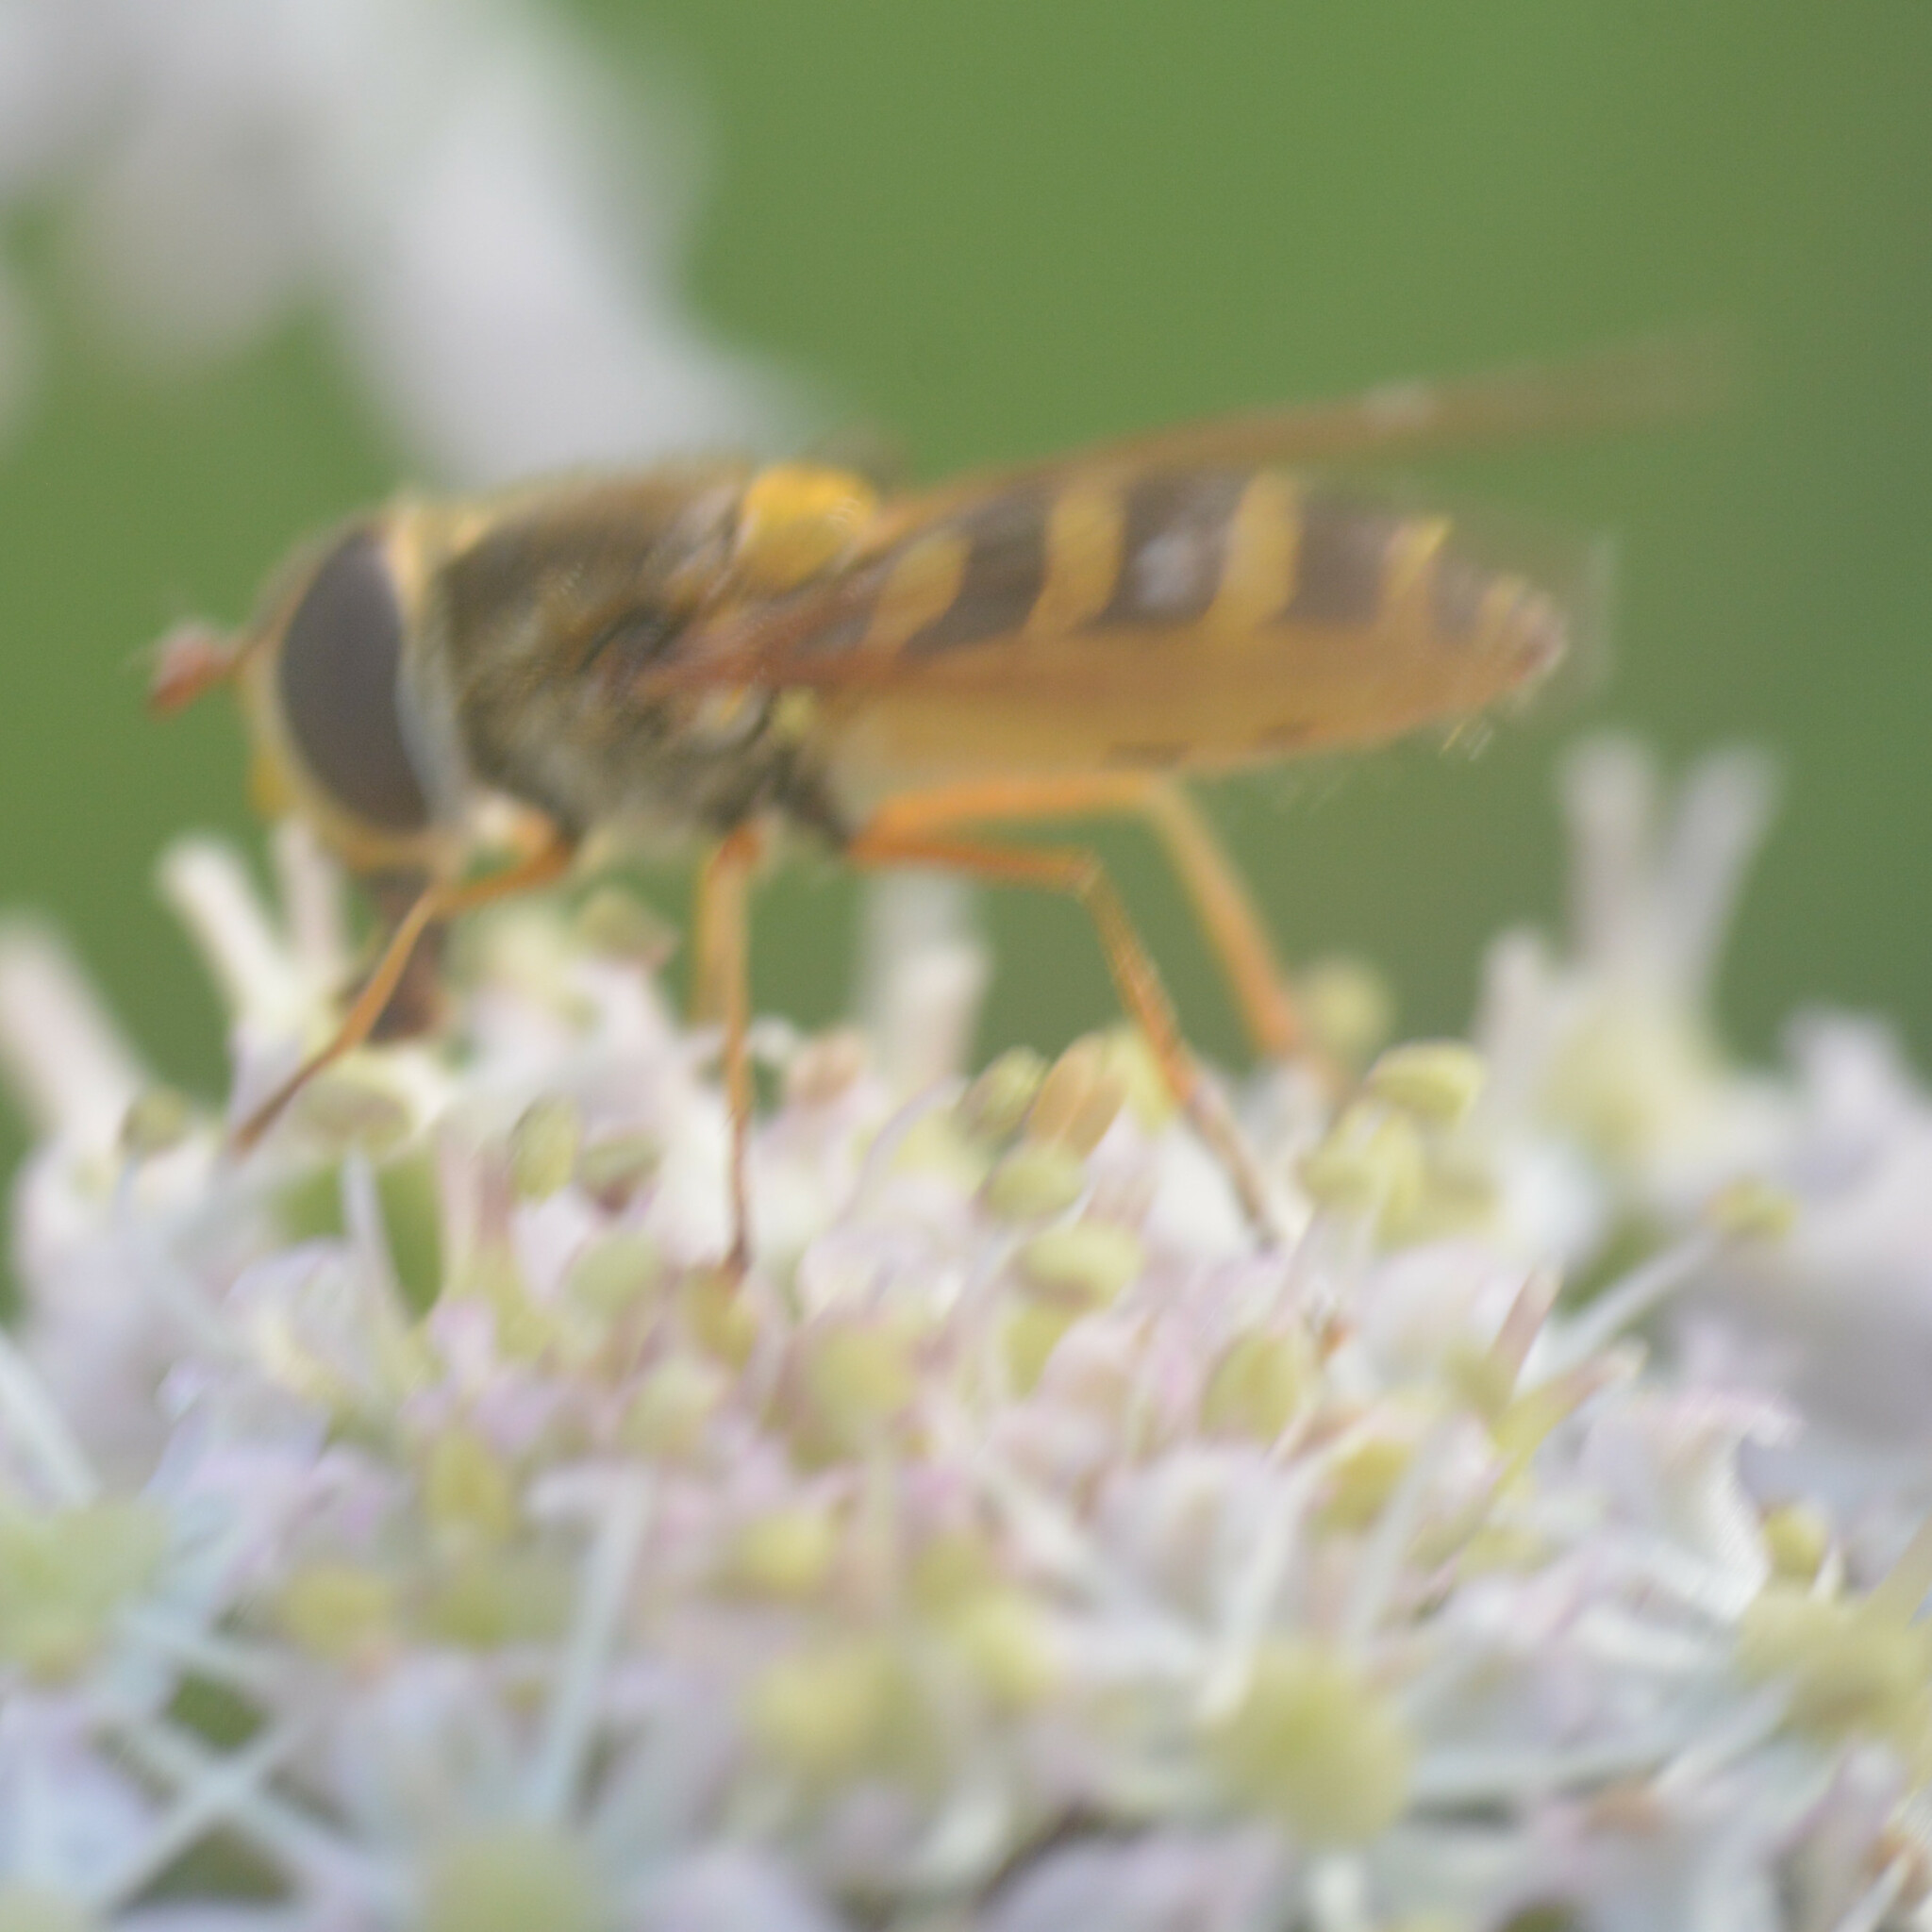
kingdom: Animalia
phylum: Arthropoda
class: Insecta
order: Diptera
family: Syrphidae
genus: Syrphus
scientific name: Syrphus ribesii
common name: Common flower fly
